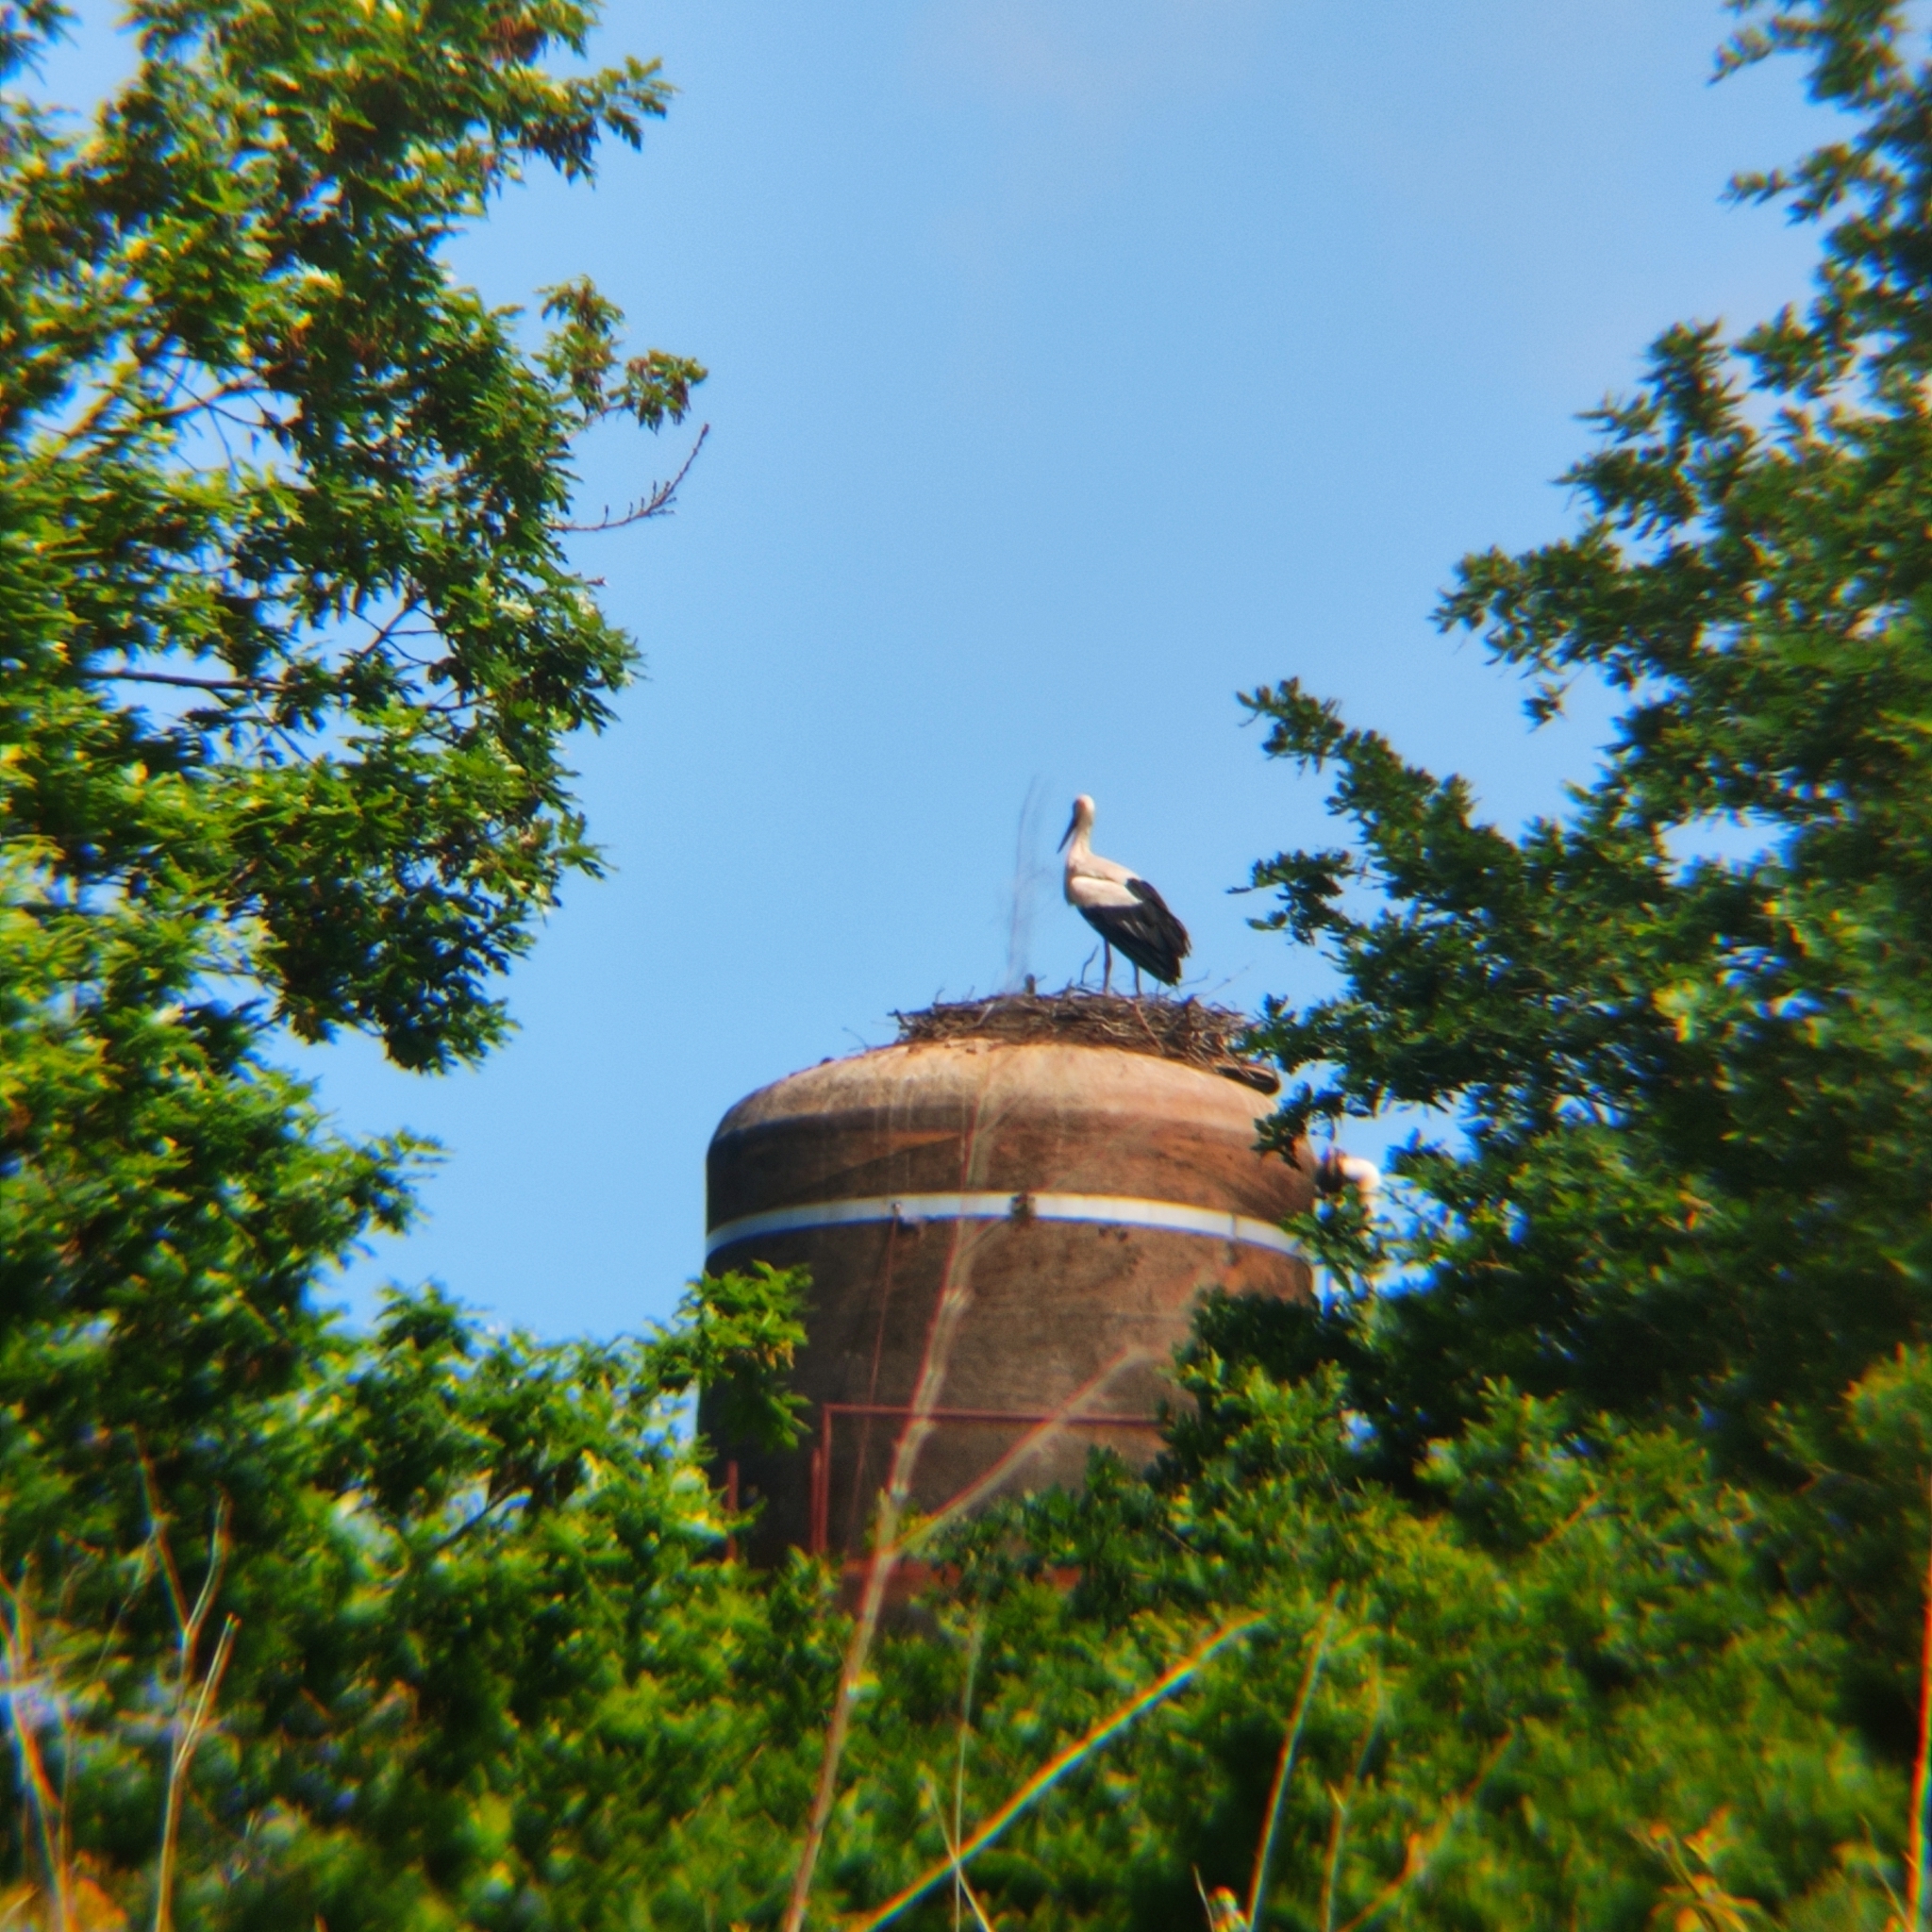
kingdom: Animalia
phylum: Chordata
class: Aves
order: Ciconiiformes
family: Ciconiidae
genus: Ciconia
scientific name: Ciconia ciconia
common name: White stork
